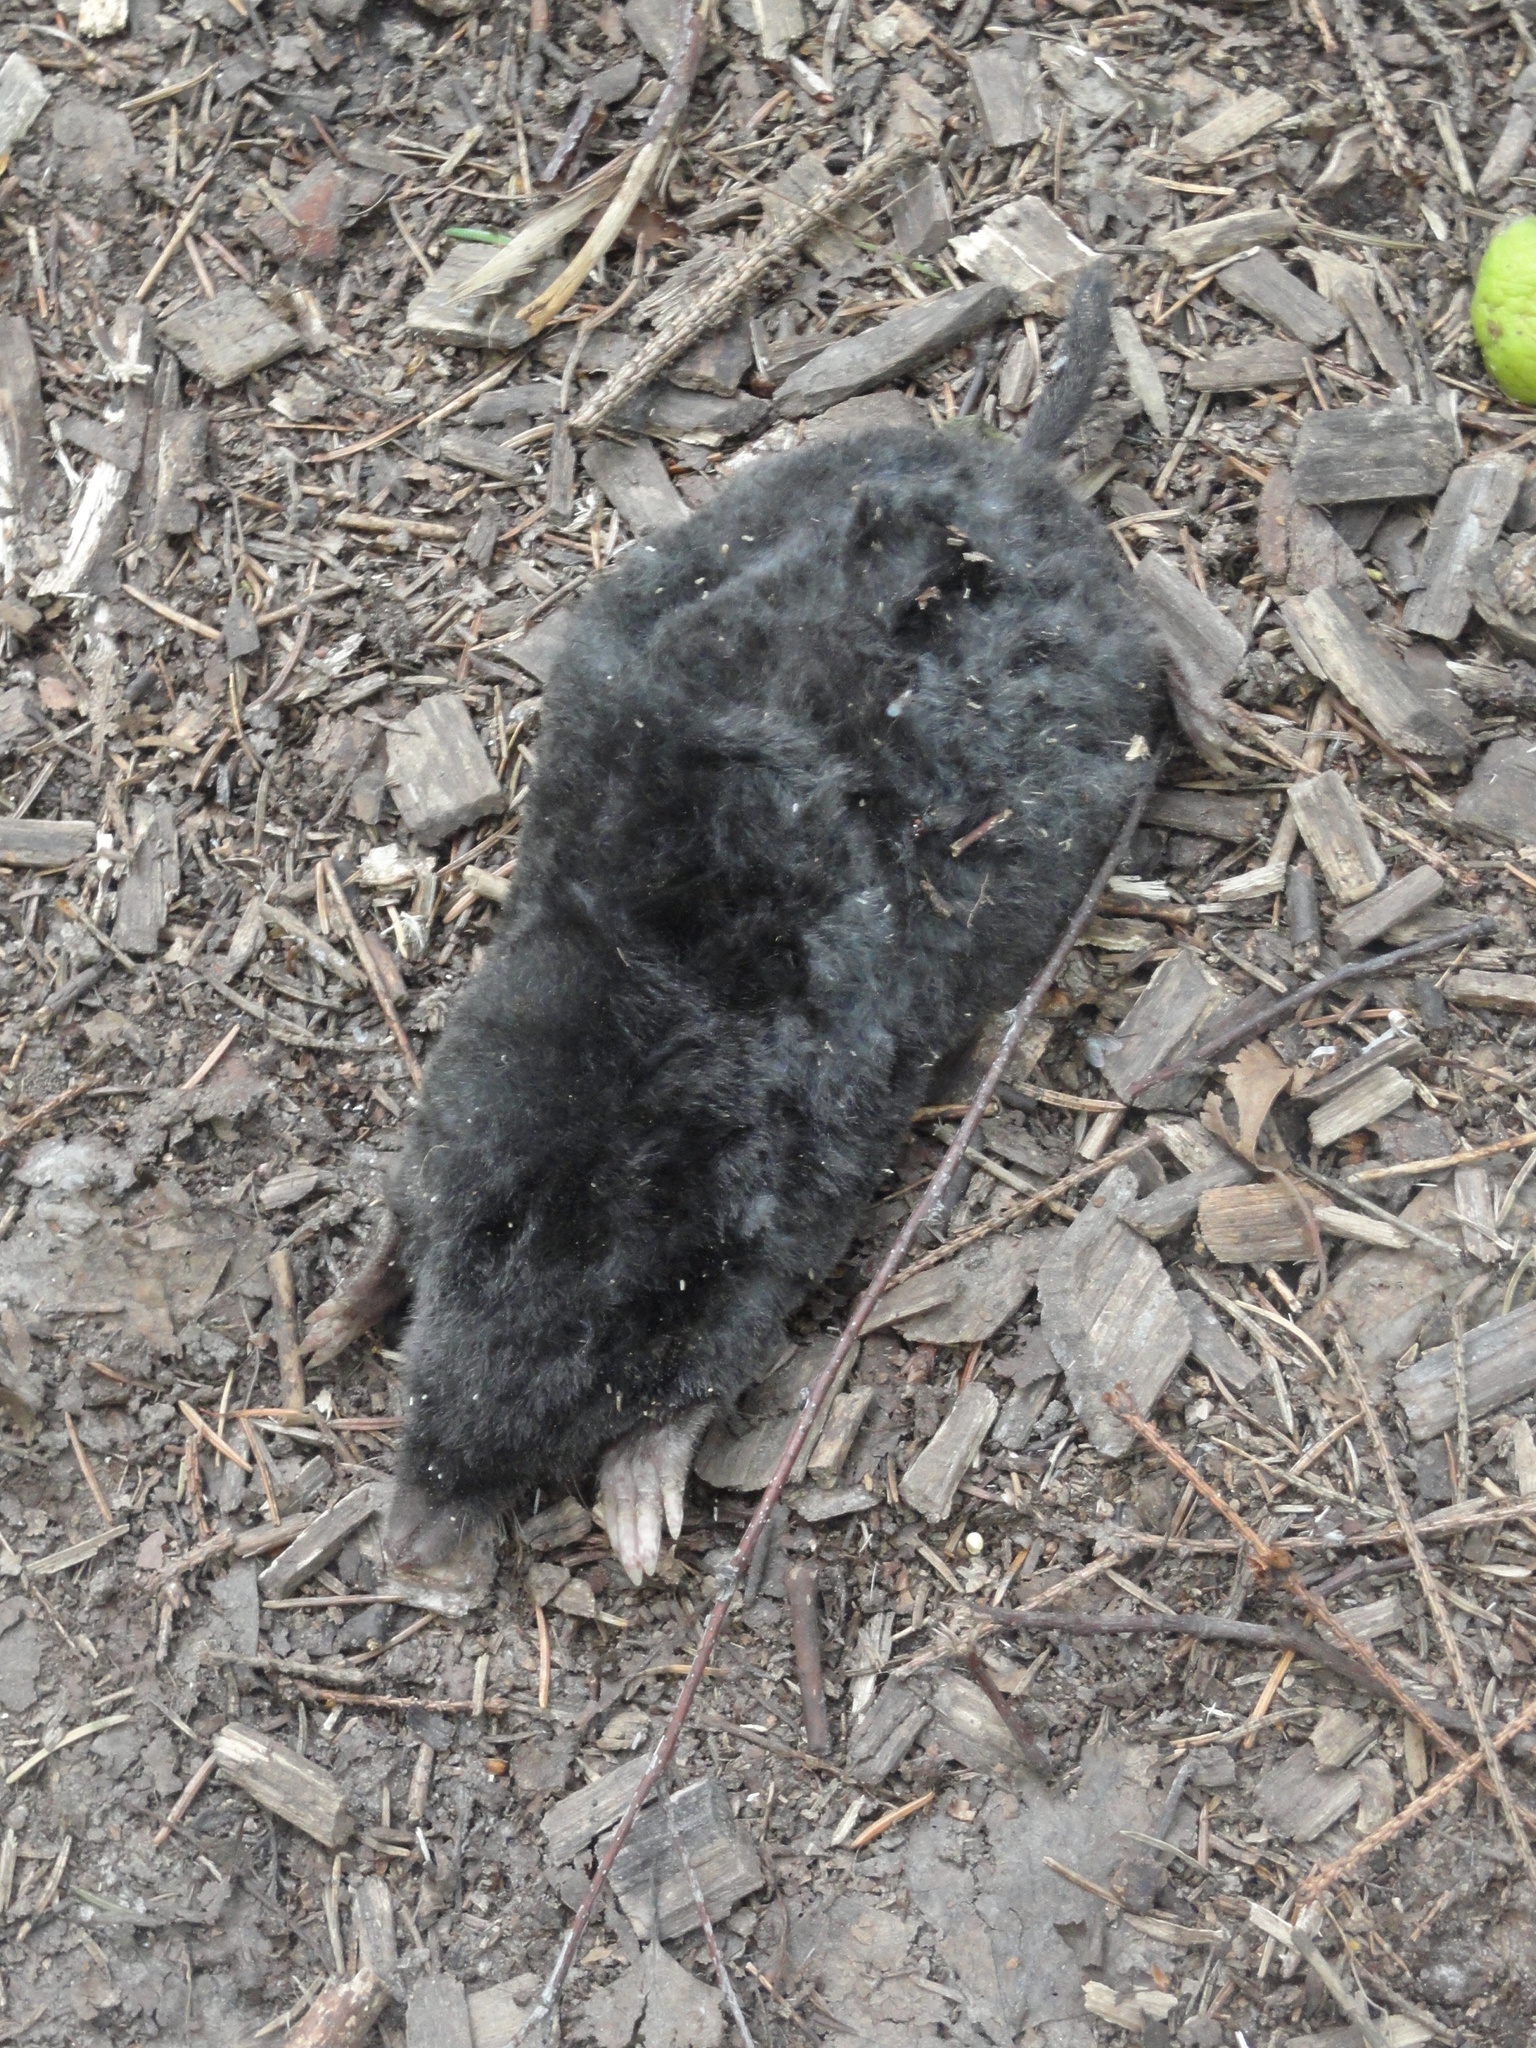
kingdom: Animalia
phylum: Chordata
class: Mammalia
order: Soricomorpha
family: Talpidae
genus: Talpa
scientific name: Talpa europaea
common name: European mole
